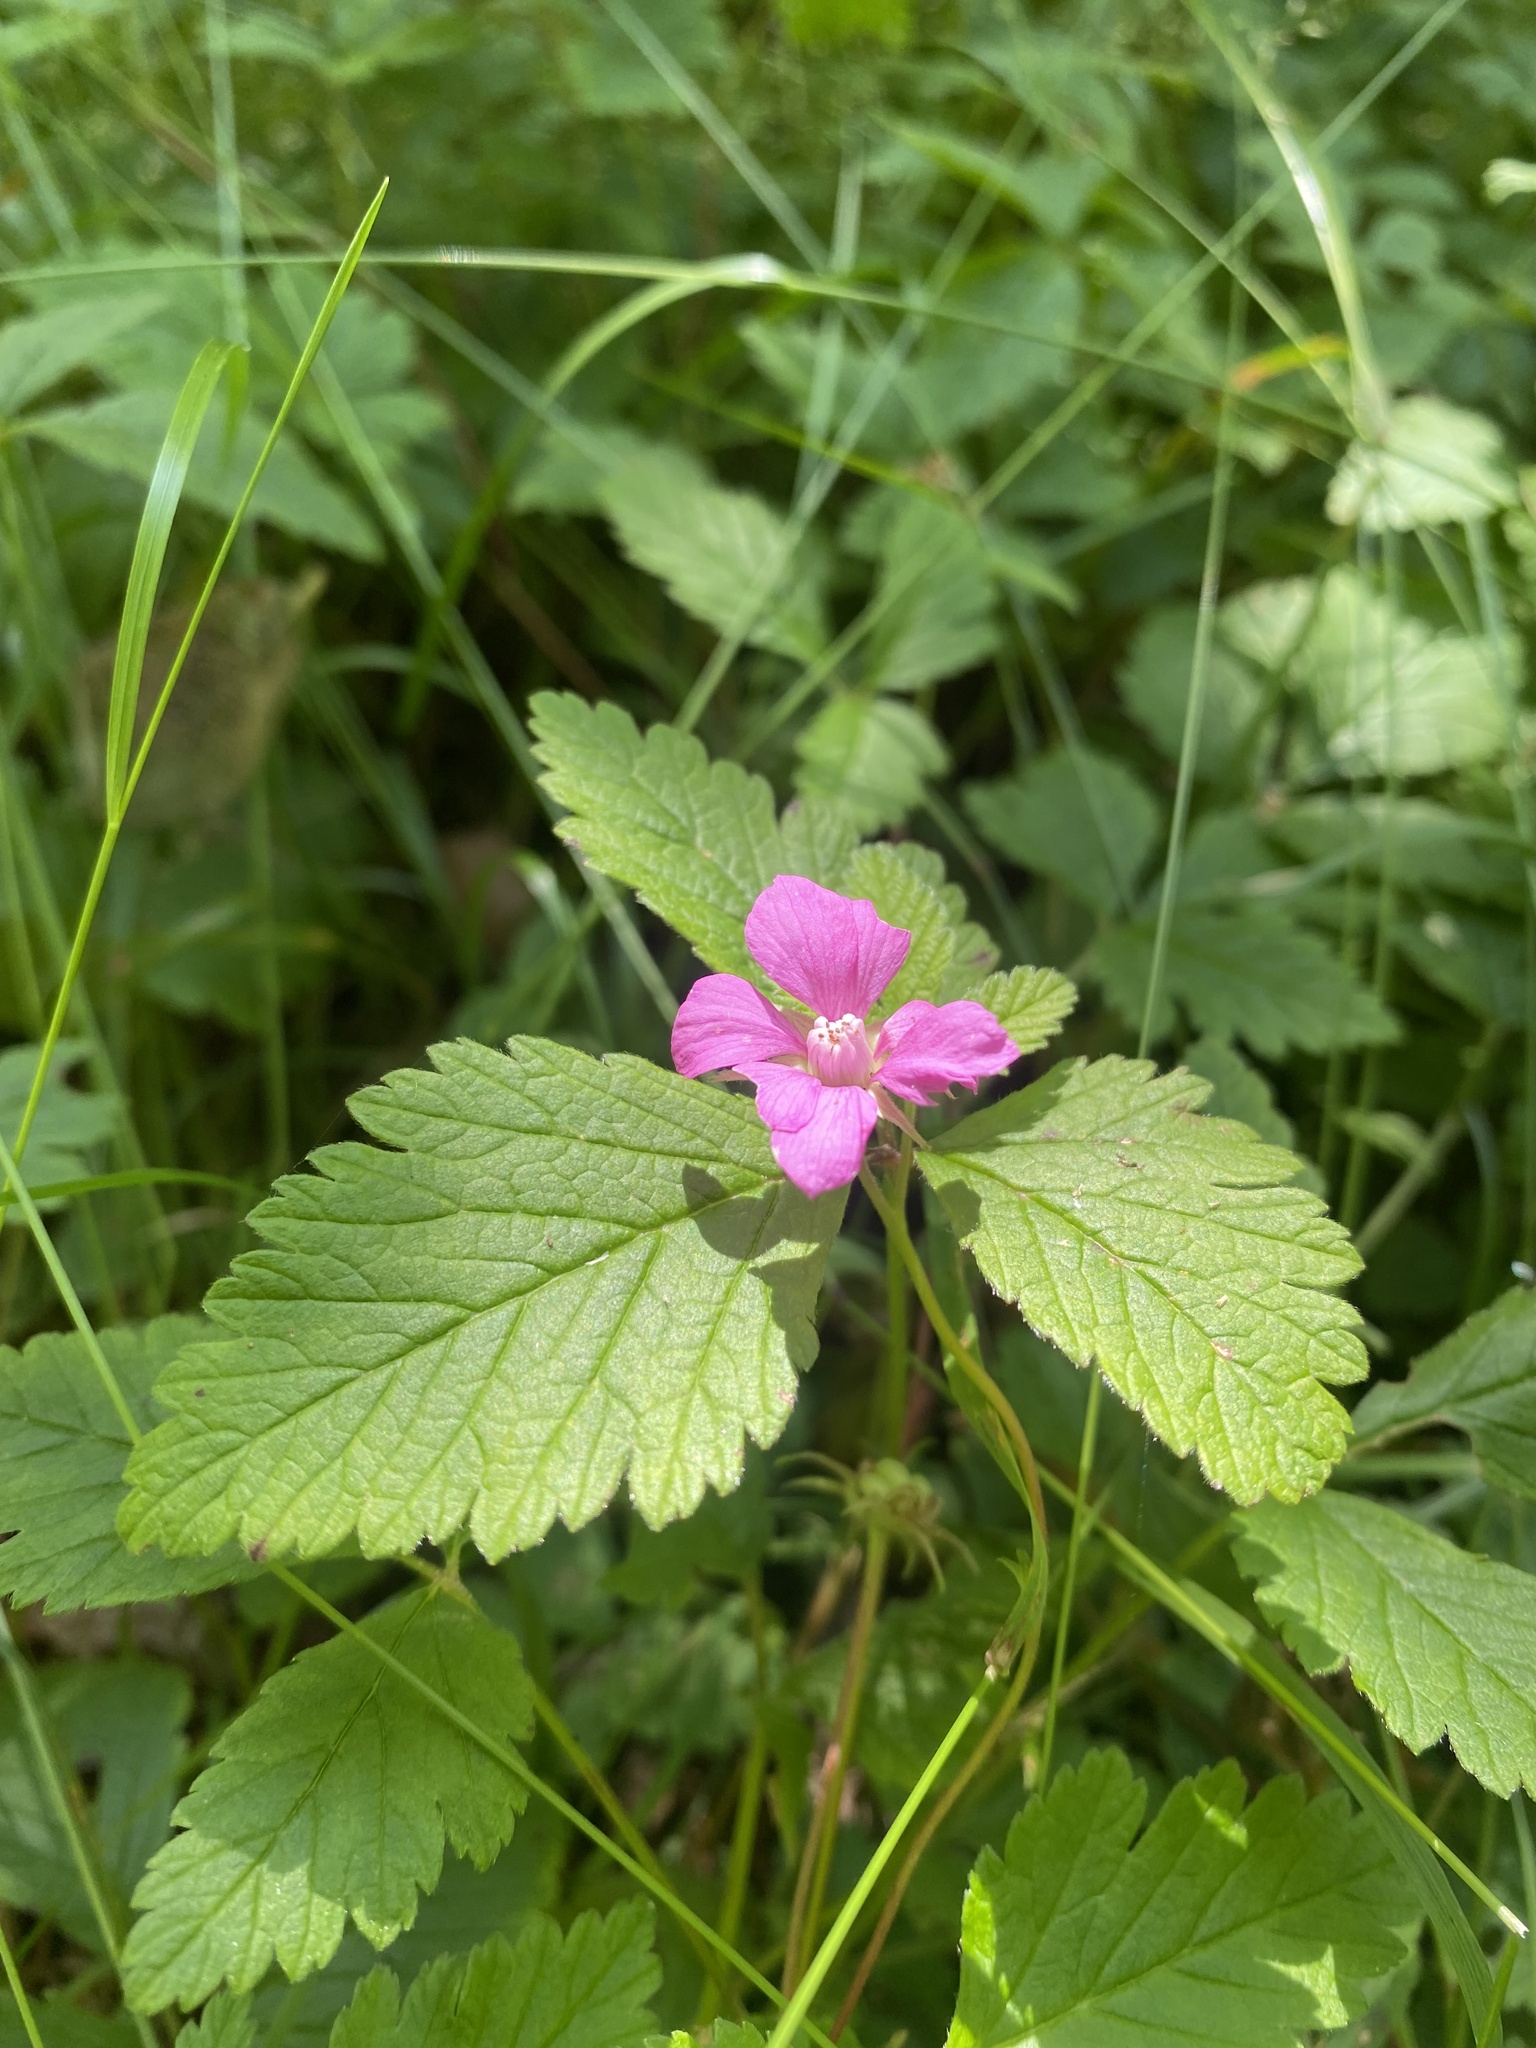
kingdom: Plantae
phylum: Tracheophyta
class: Magnoliopsida
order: Rosales
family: Rosaceae
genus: Rubus
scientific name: Rubus arcticus
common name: Arctic bramble
